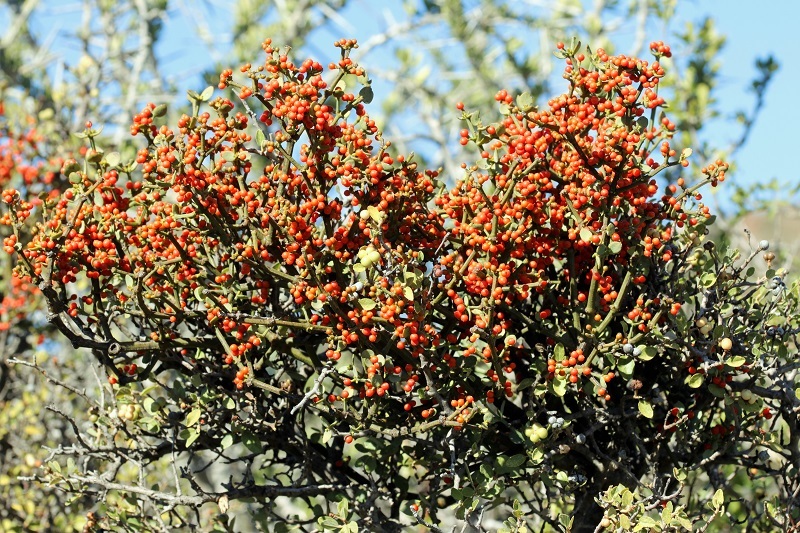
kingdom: Plantae
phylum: Tracheophyta
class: Magnoliopsida
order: Santalales
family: Viscaceae
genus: Viscum
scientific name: Viscum rotundifolium
